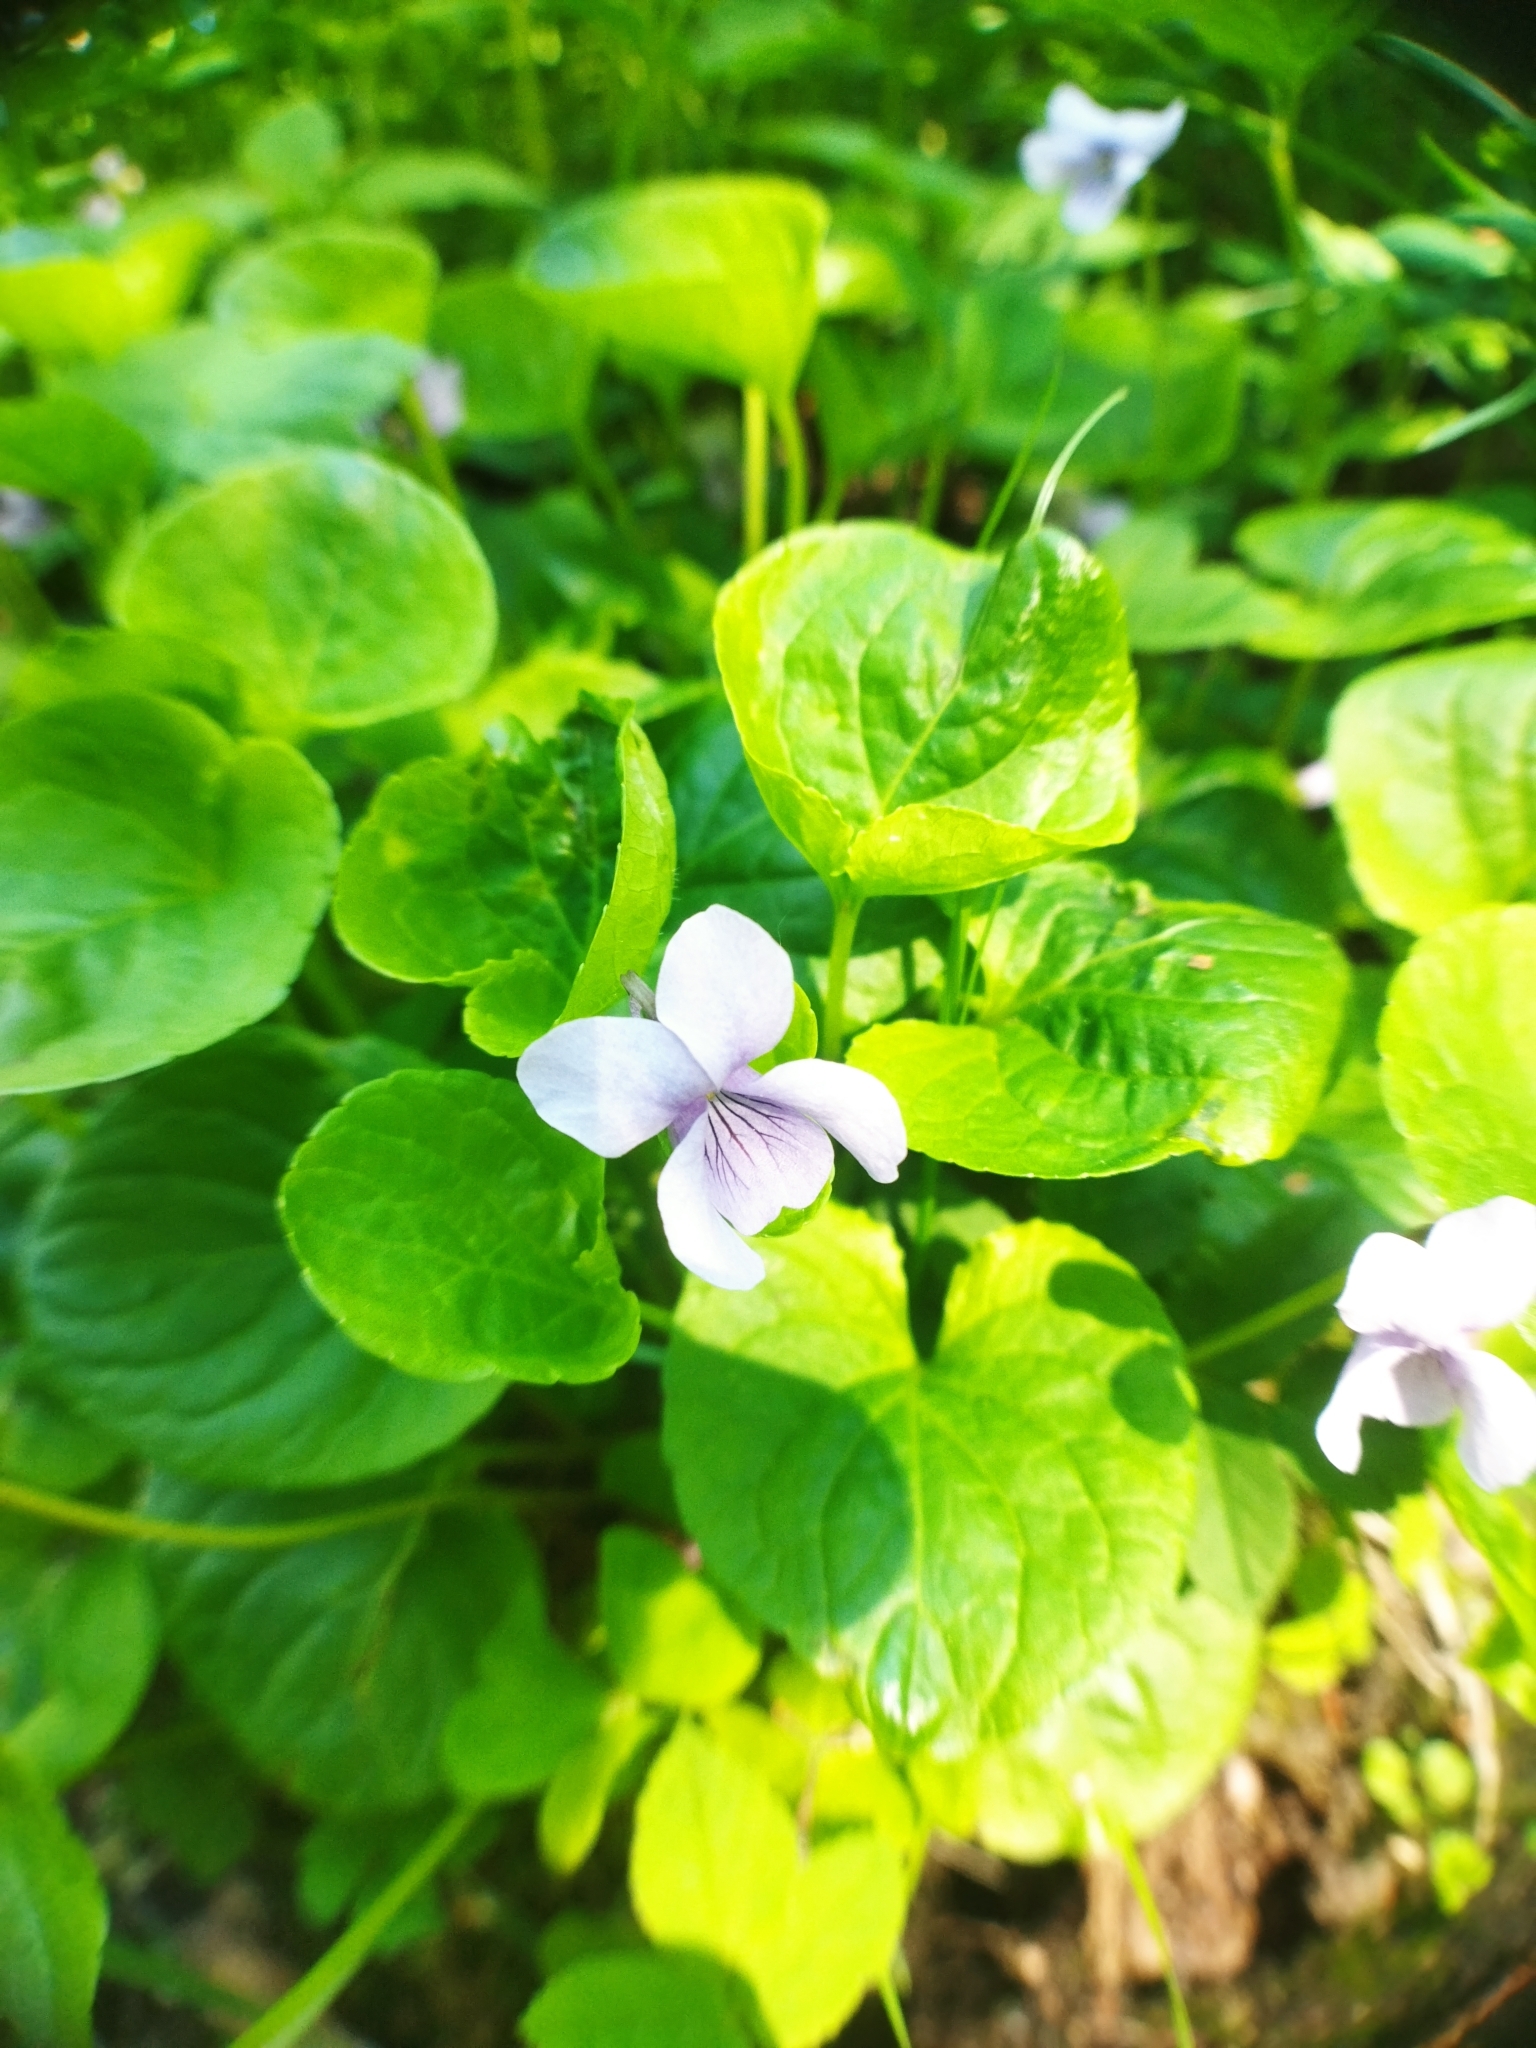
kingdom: Plantae
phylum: Tracheophyta
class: Magnoliopsida
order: Malpighiales
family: Violaceae
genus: Viola
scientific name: Viola palustris
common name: Marsh violet
